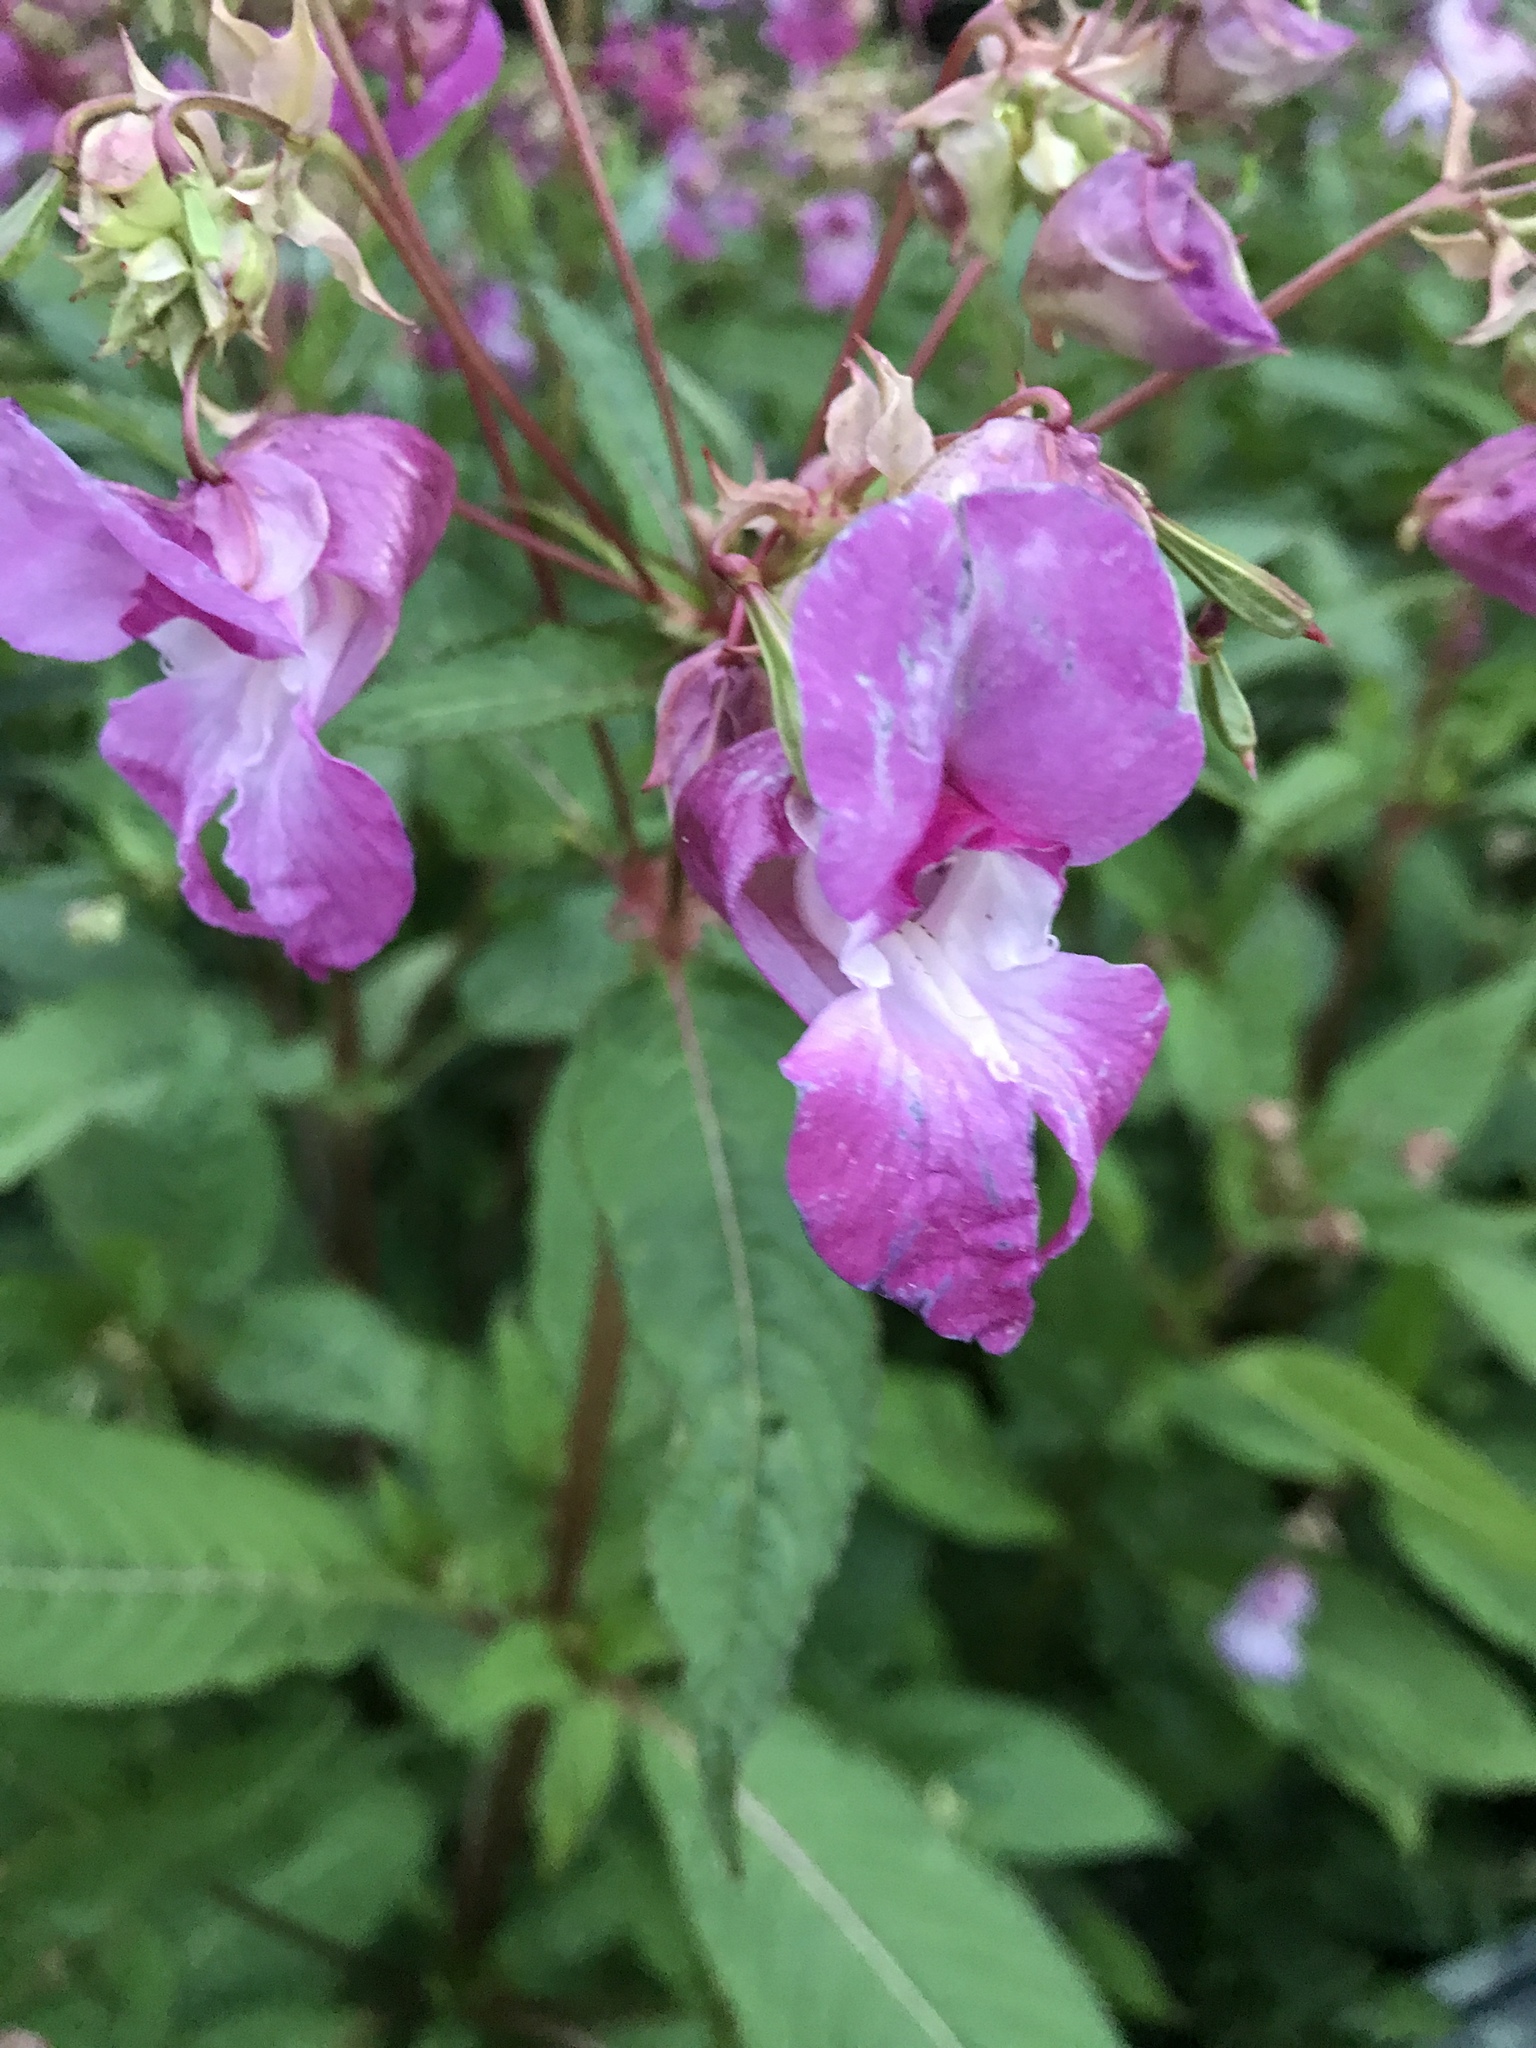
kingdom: Plantae
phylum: Tracheophyta
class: Magnoliopsida
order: Ericales
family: Balsaminaceae
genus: Impatiens
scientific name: Impatiens glandulifera
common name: Himalayan balsam
